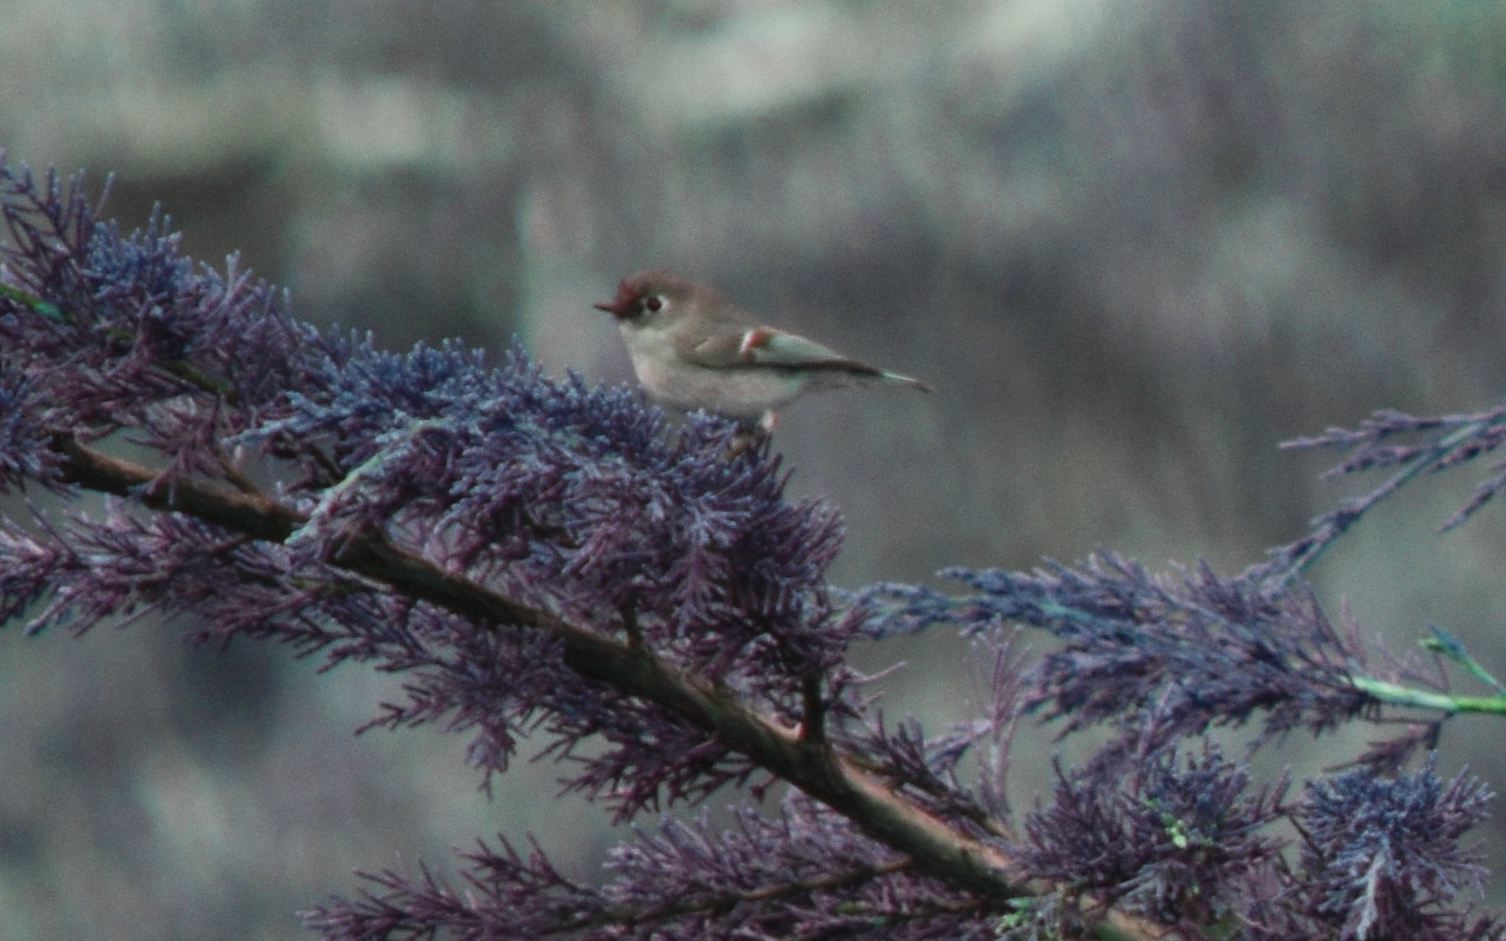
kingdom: Animalia
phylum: Chordata
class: Aves
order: Passeriformes
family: Regulidae
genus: Regulus
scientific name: Regulus calendula
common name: Ruby-crowned kinglet
